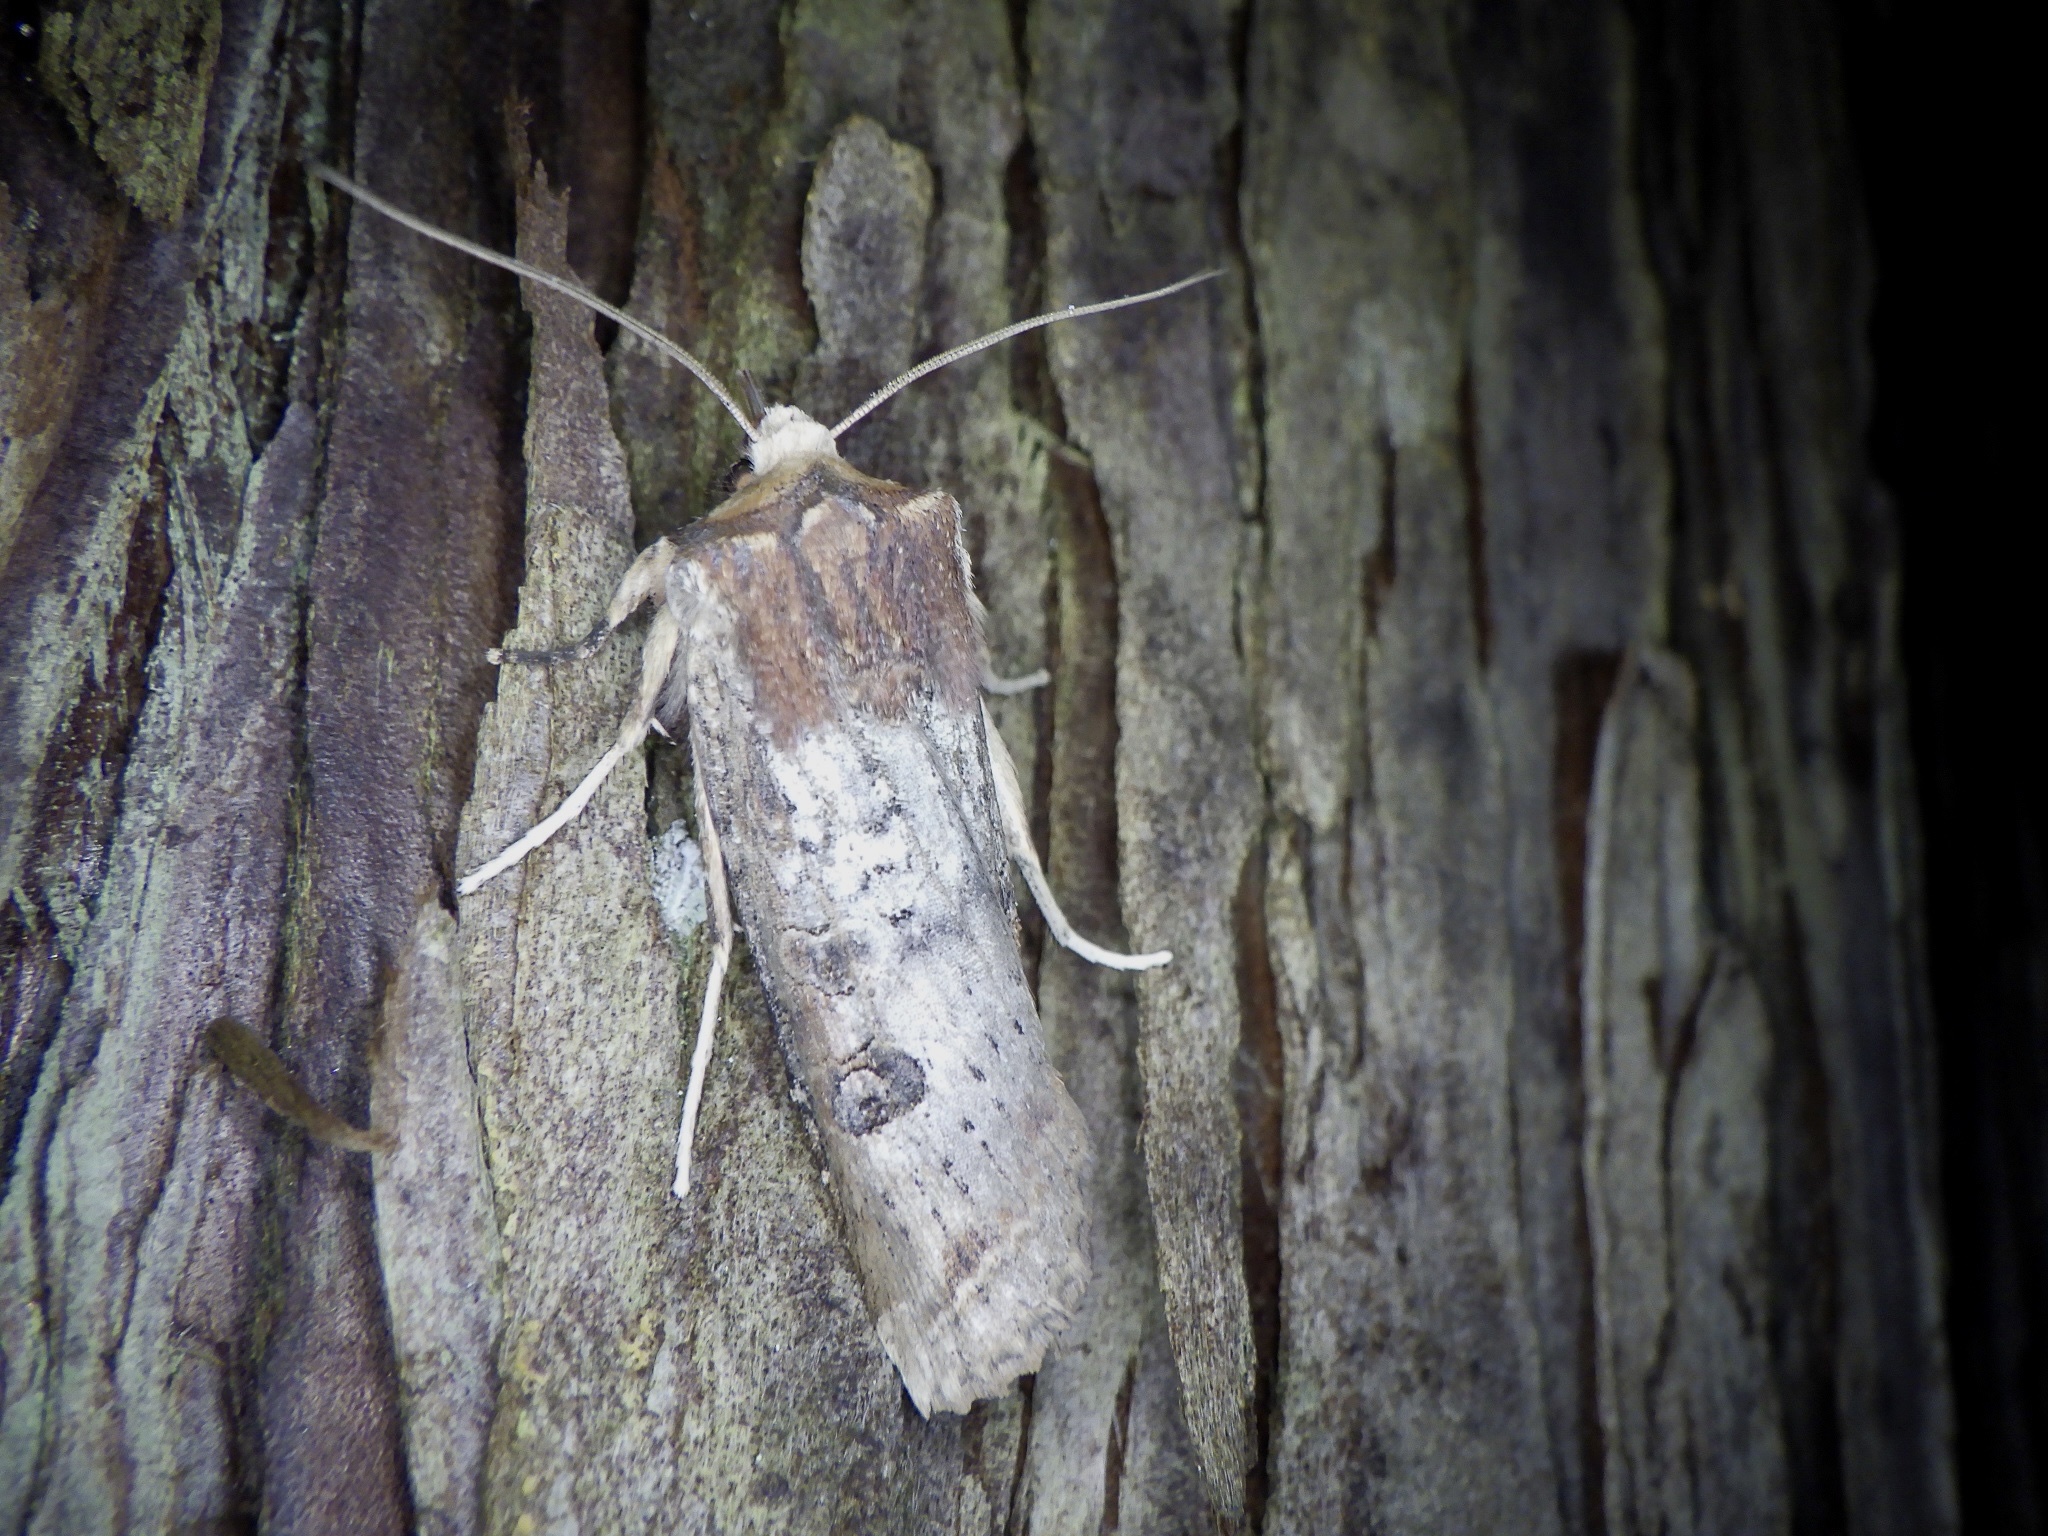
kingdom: Animalia
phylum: Arthropoda
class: Insecta
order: Lepidoptera
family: Noctuidae
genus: Xylena
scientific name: Xylena formosa
